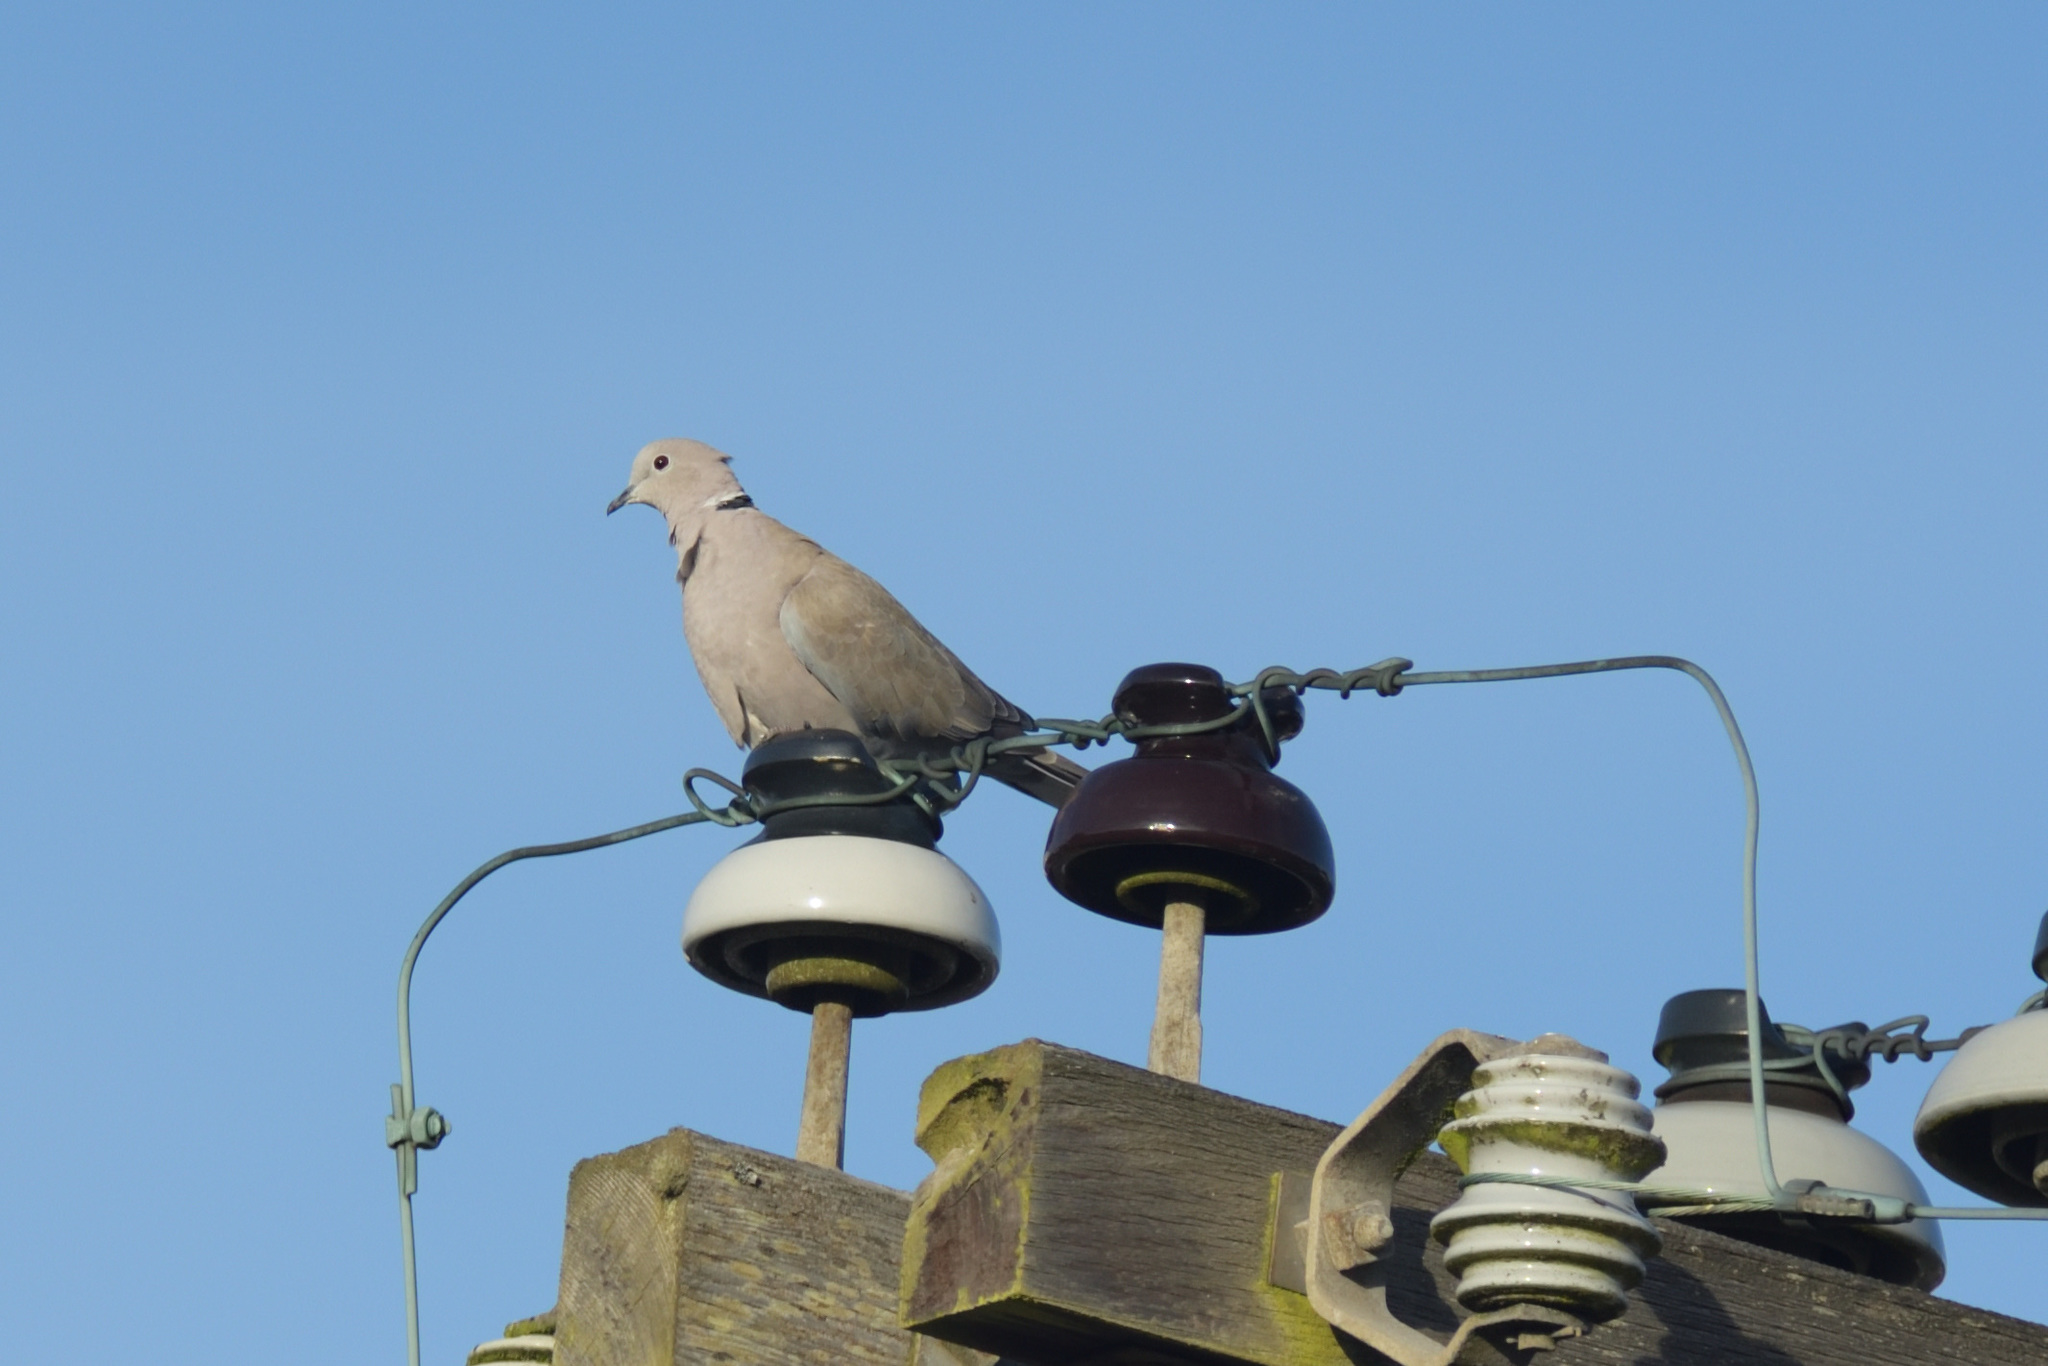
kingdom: Animalia
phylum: Chordata
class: Aves
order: Columbiformes
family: Columbidae
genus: Streptopelia
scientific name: Streptopelia decaocto
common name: Eurasian collared dove
